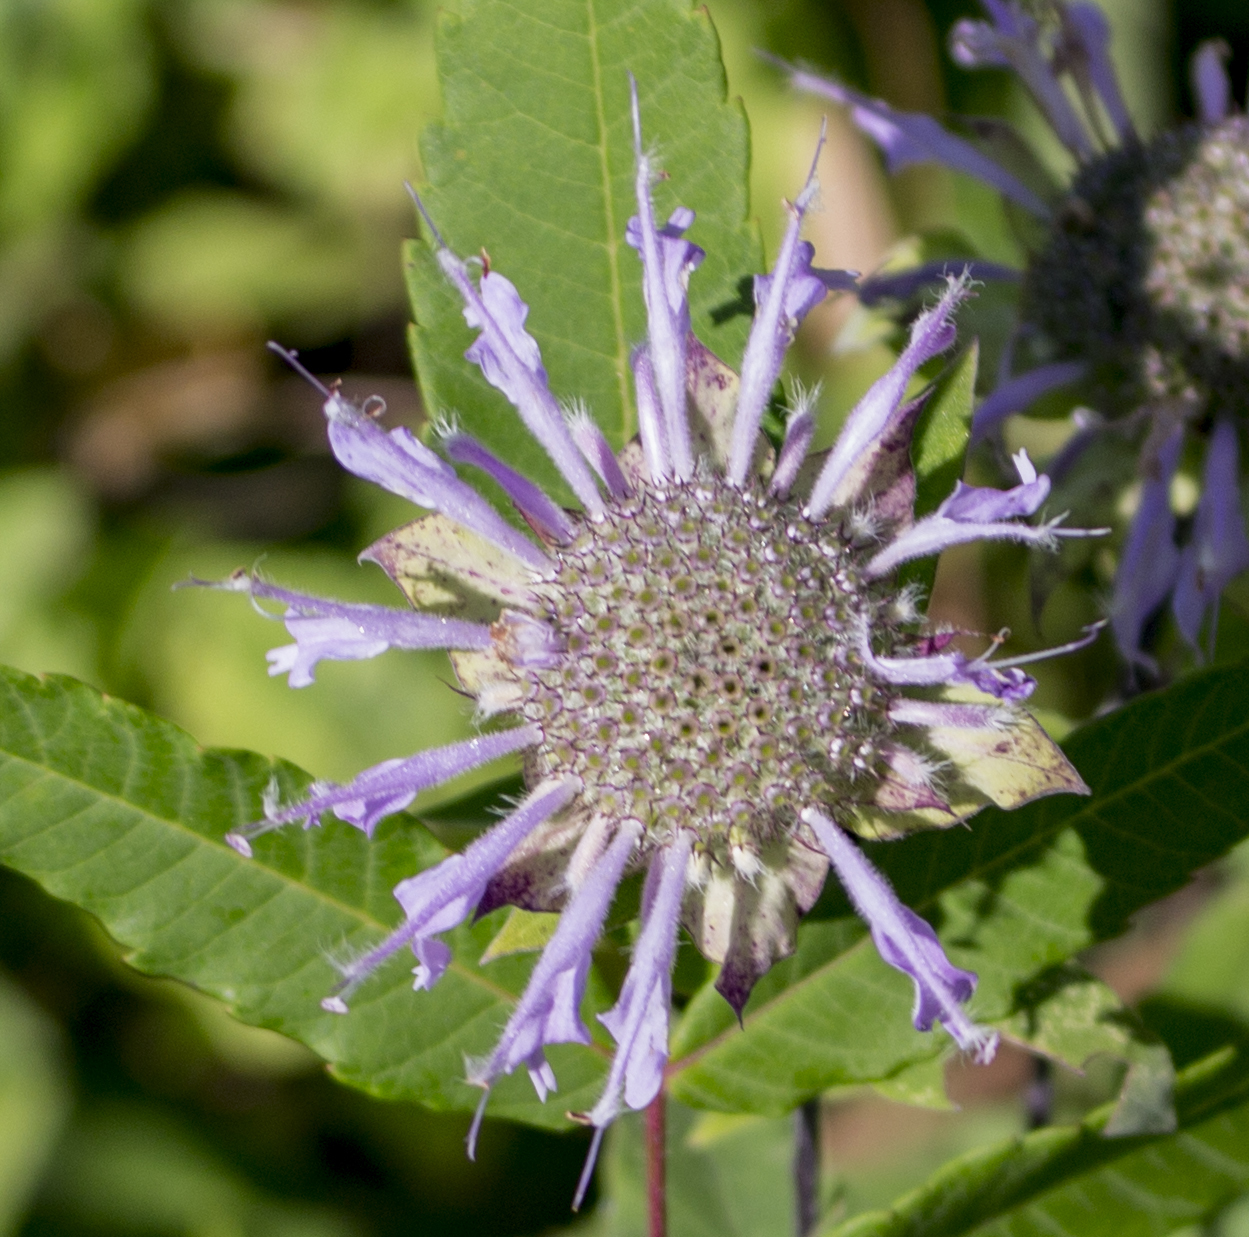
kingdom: Plantae
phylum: Tracheophyta
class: Magnoliopsida
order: Lamiales
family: Lamiaceae
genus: Monarda
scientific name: Monarda fistulosa
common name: Purple beebalm
